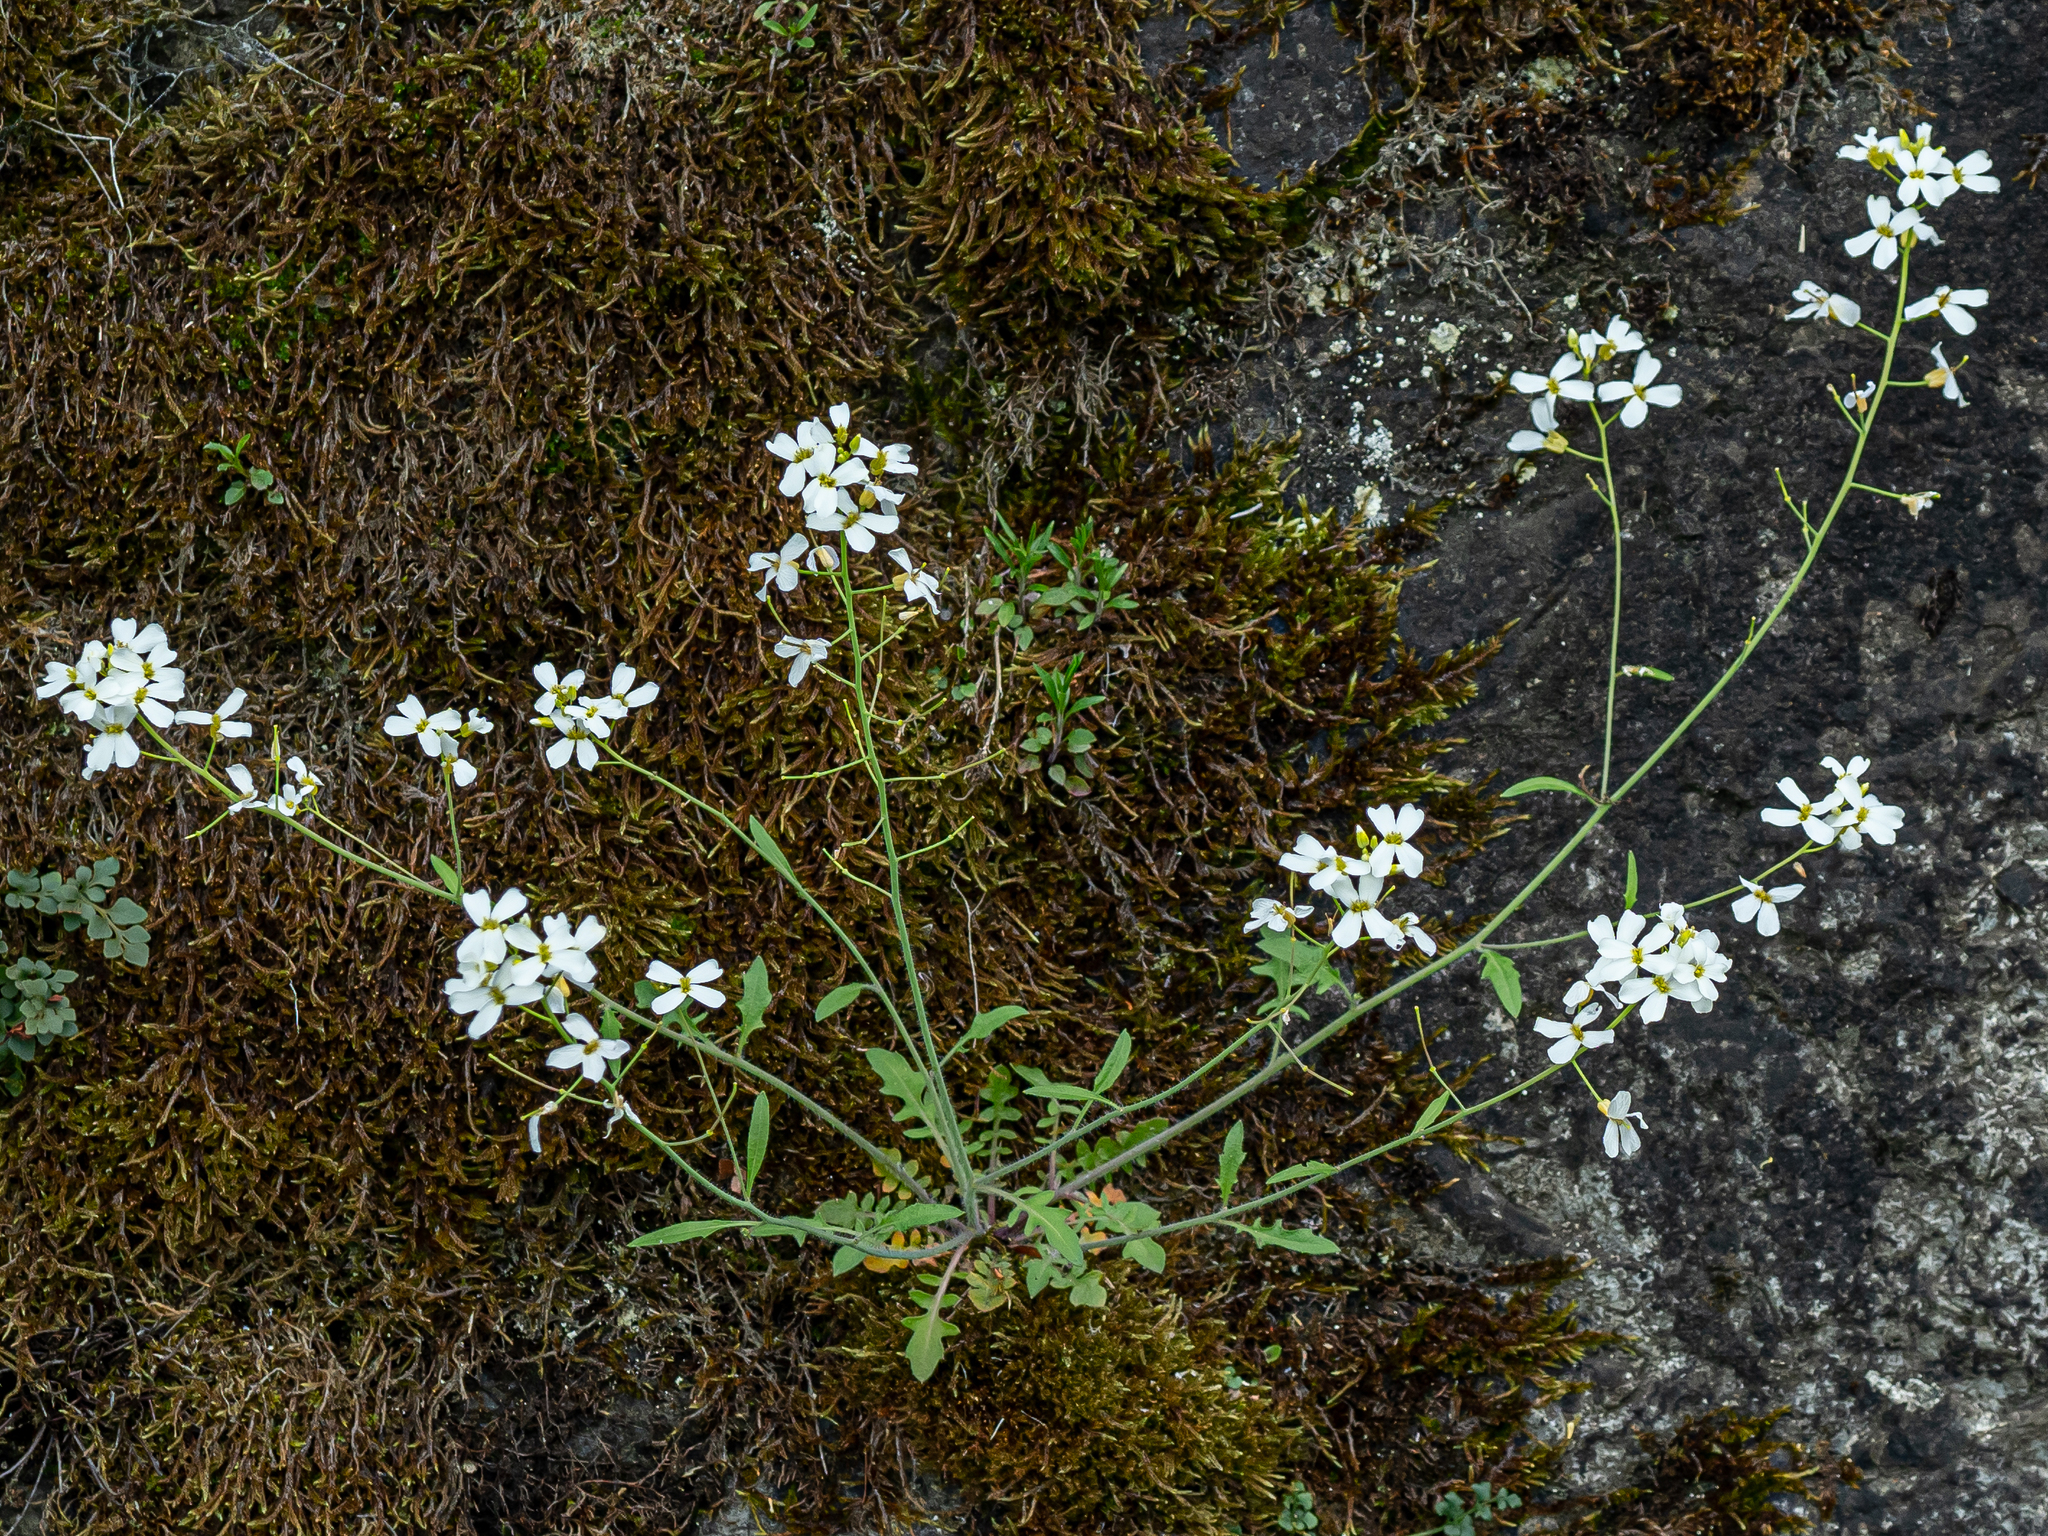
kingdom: Plantae
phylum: Tracheophyta
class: Magnoliopsida
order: Brassicales
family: Brassicaceae
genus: Arabidopsis
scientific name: Arabidopsis arenosa
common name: Sand rock-cress
